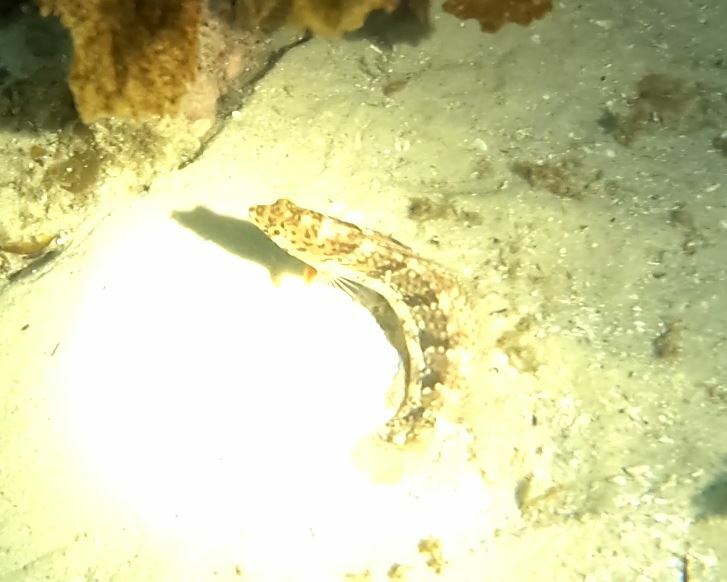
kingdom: Animalia
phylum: Chordata
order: Perciformes
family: Labridae
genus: Eupetrichthys
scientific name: Eupetrichthys angustipes
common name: Snake-skin wrasse
